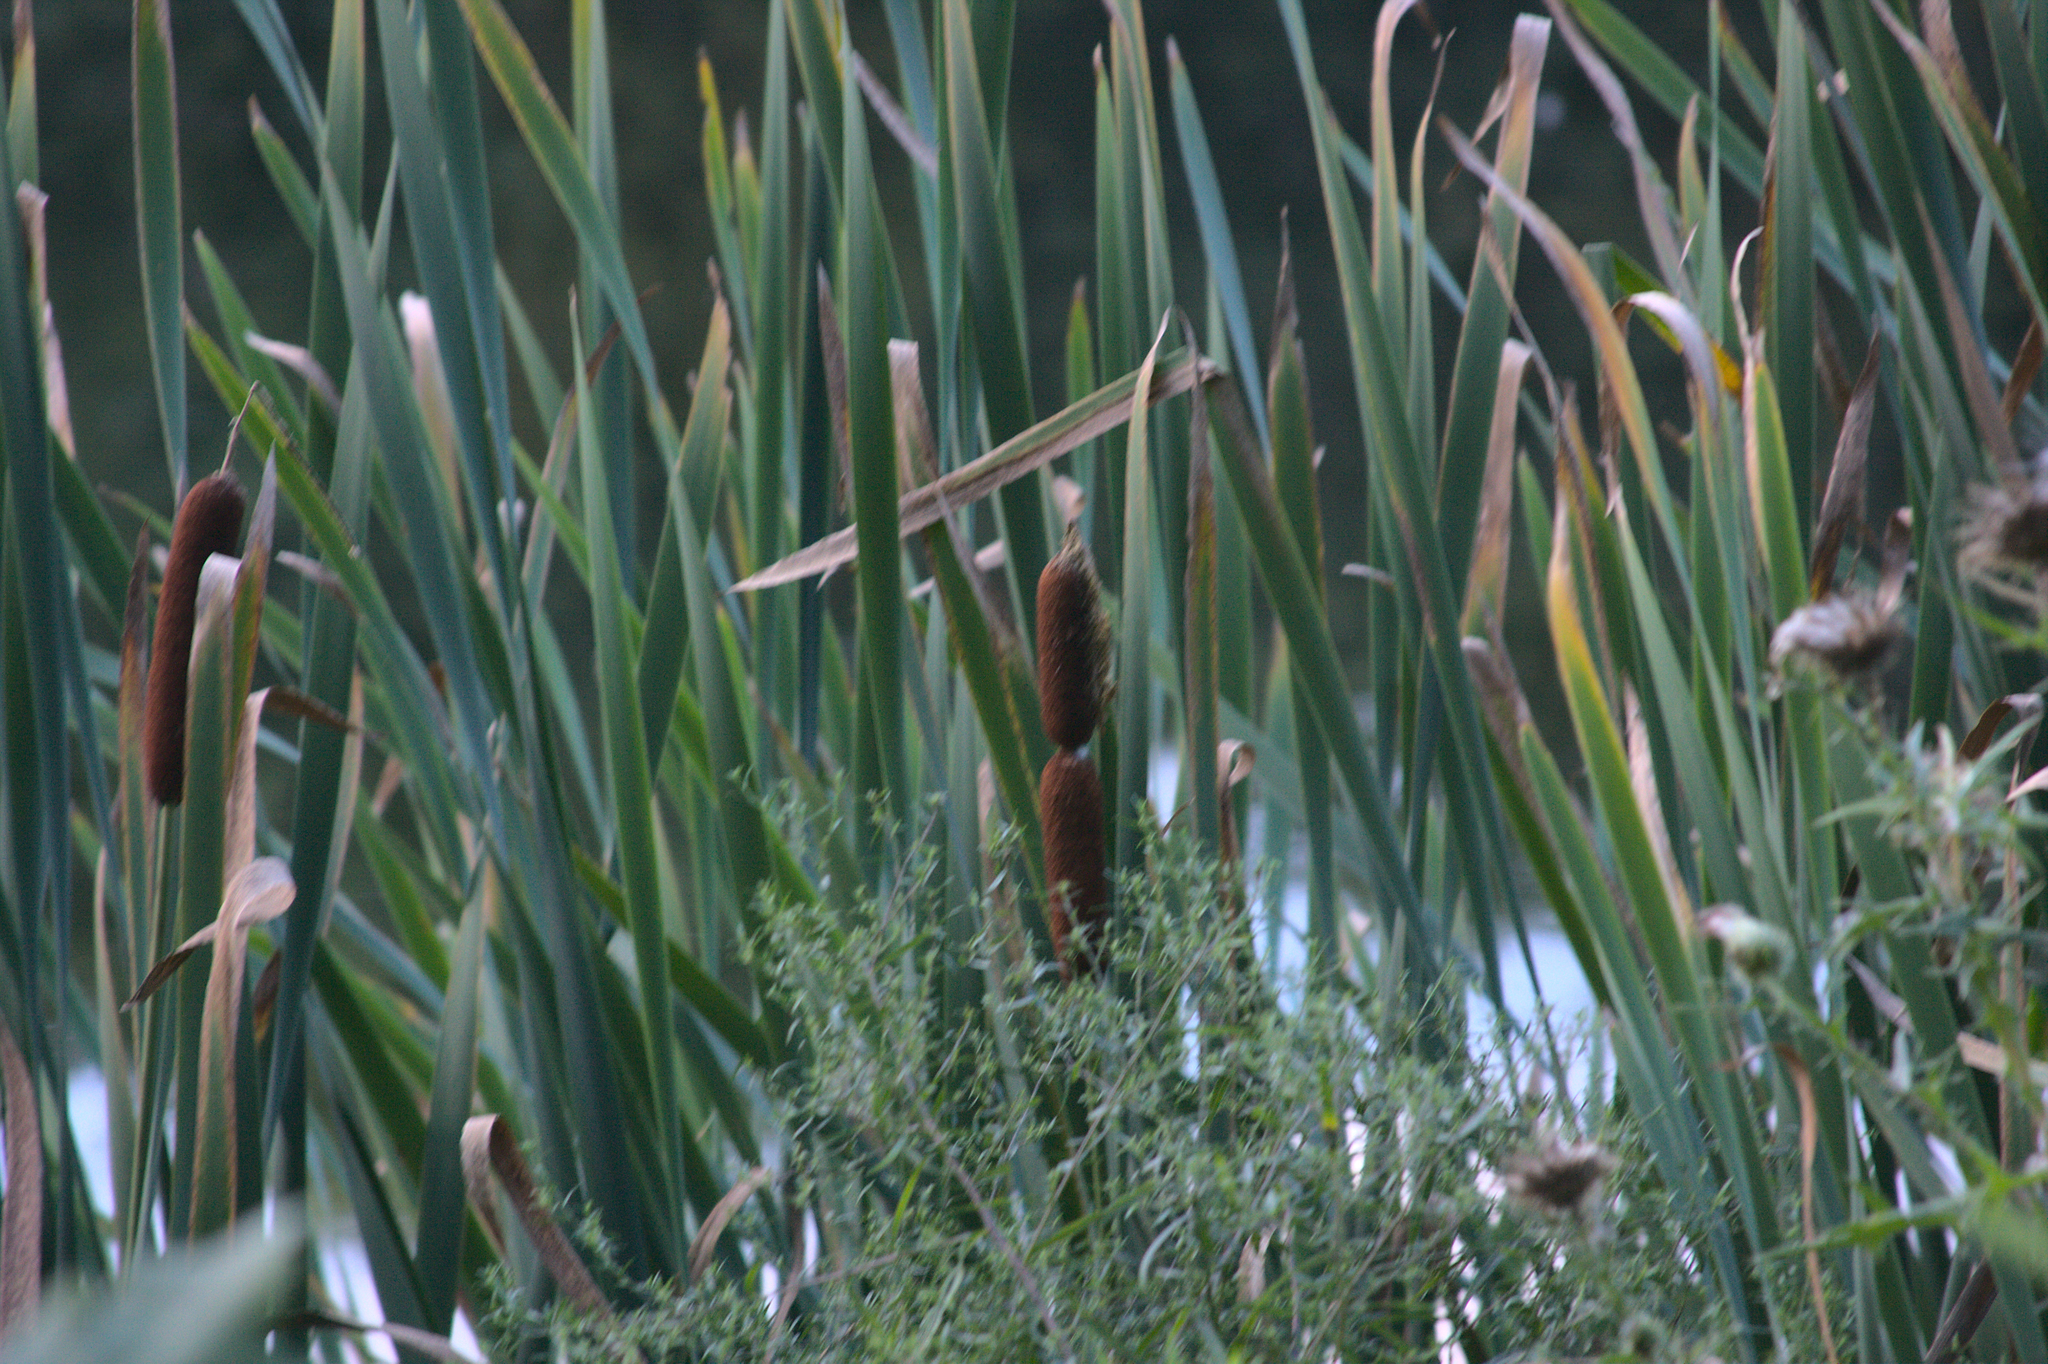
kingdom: Plantae
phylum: Tracheophyta
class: Liliopsida
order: Poales
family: Typhaceae
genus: Typha
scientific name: Typha latifolia
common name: Broadleaf cattail
